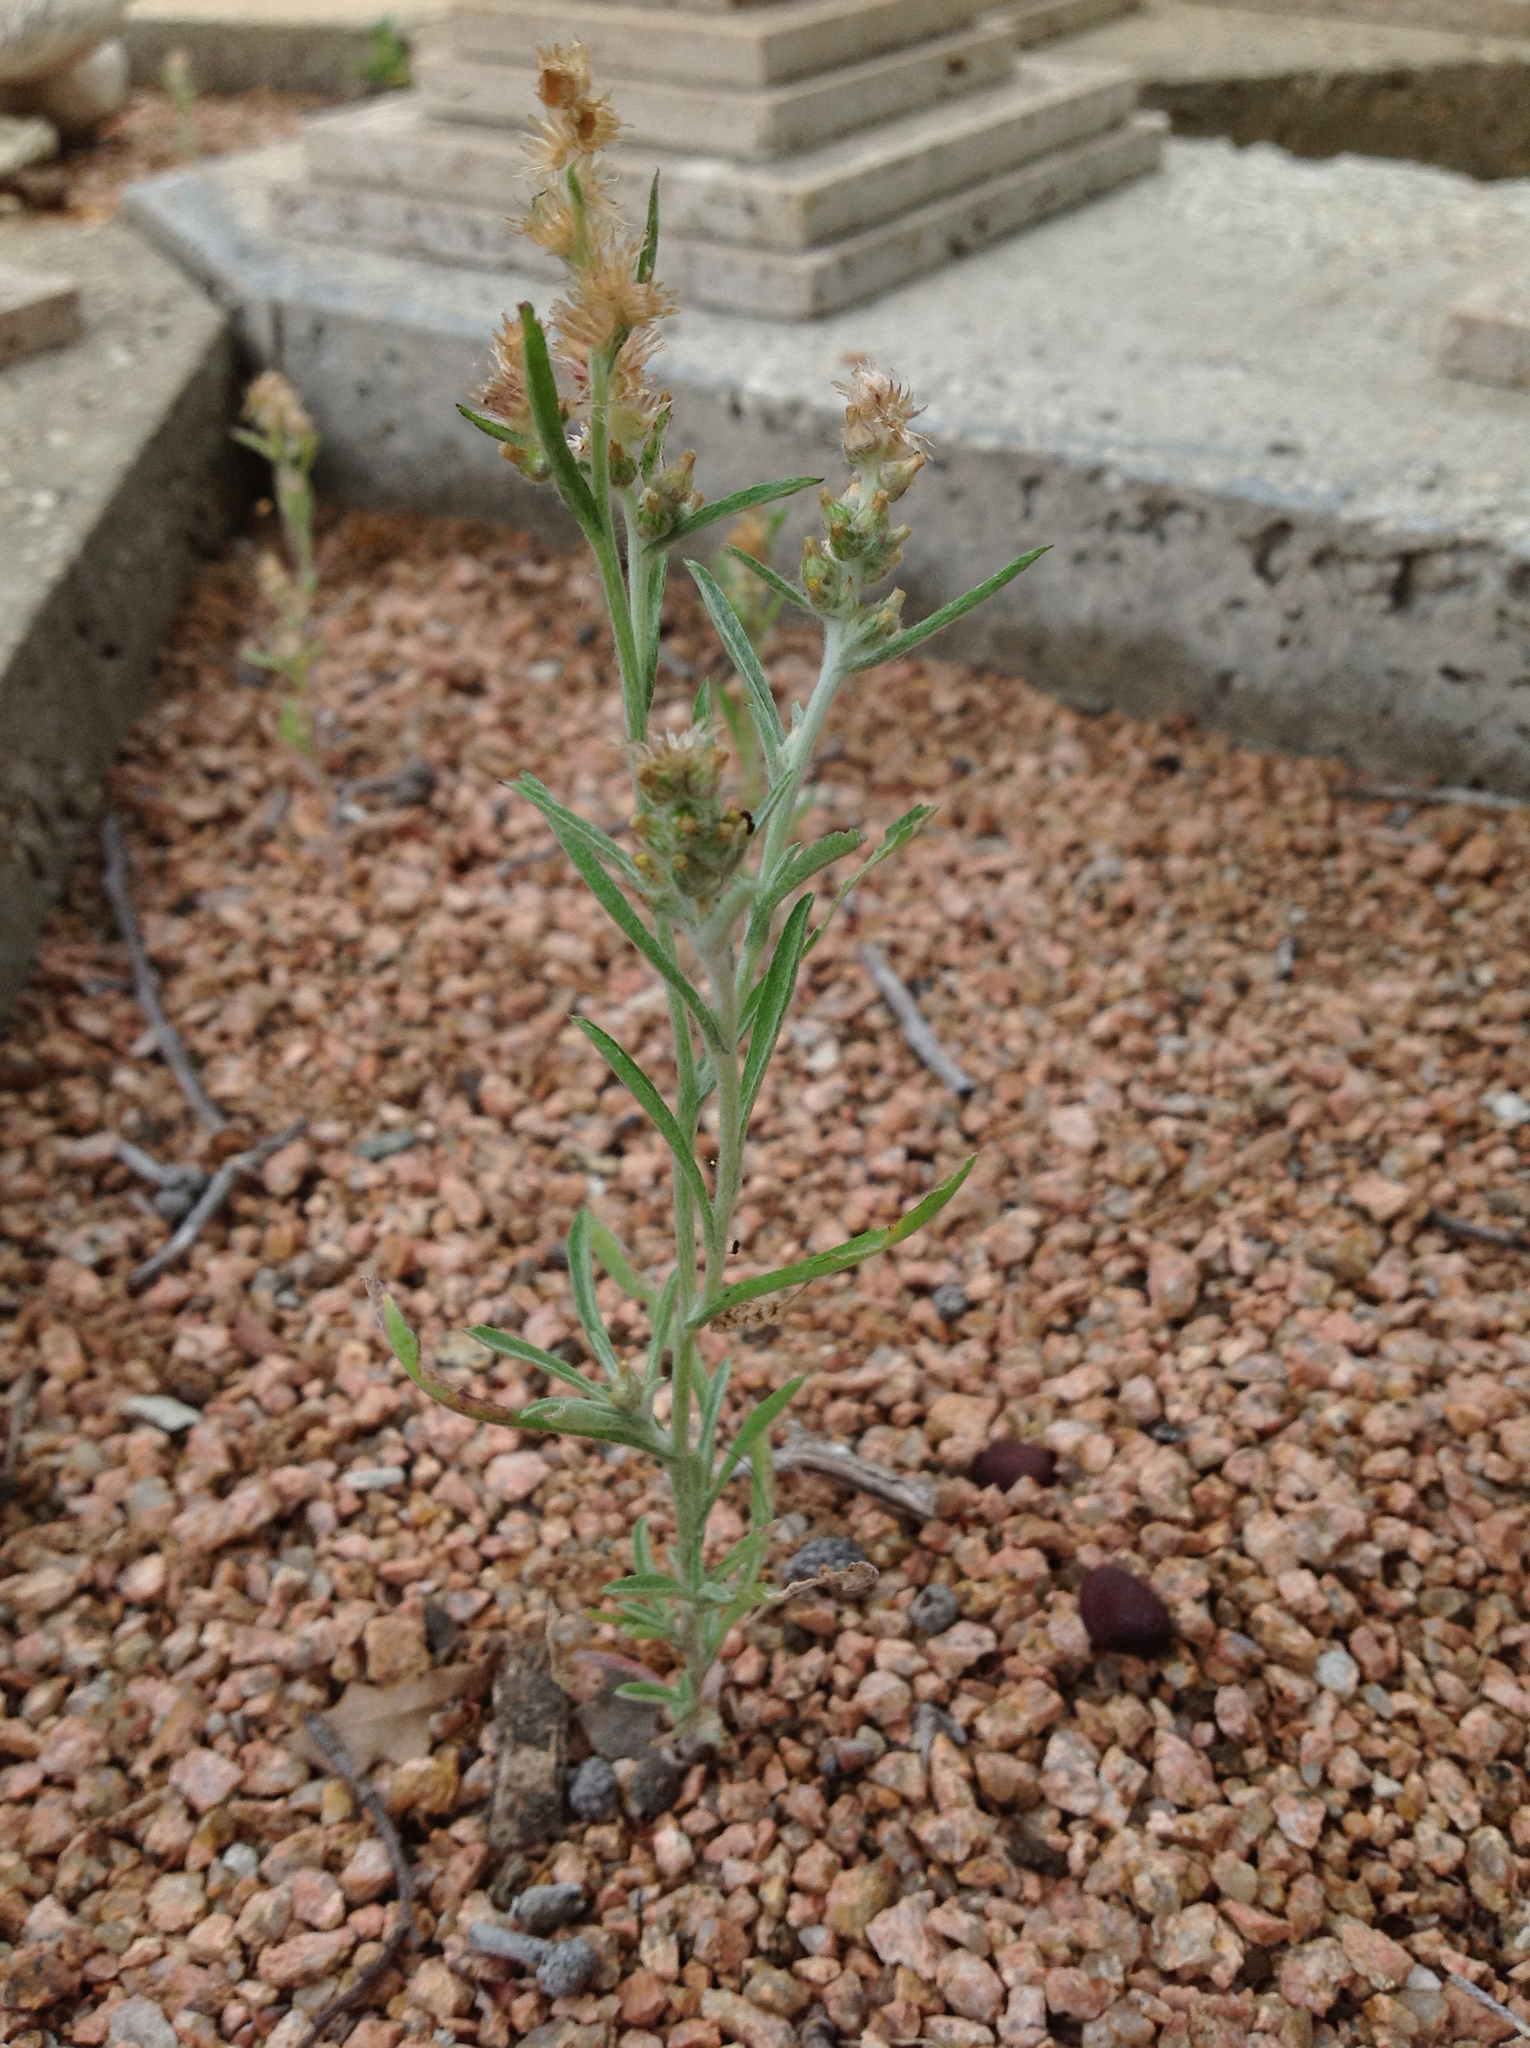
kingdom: Plantae
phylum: Tracheophyta
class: Magnoliopsida
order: Asterales
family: Asteraceae
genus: Gamochaeta
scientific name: Gamochaeta pensylvanica
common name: Pennsylvania everlasting
